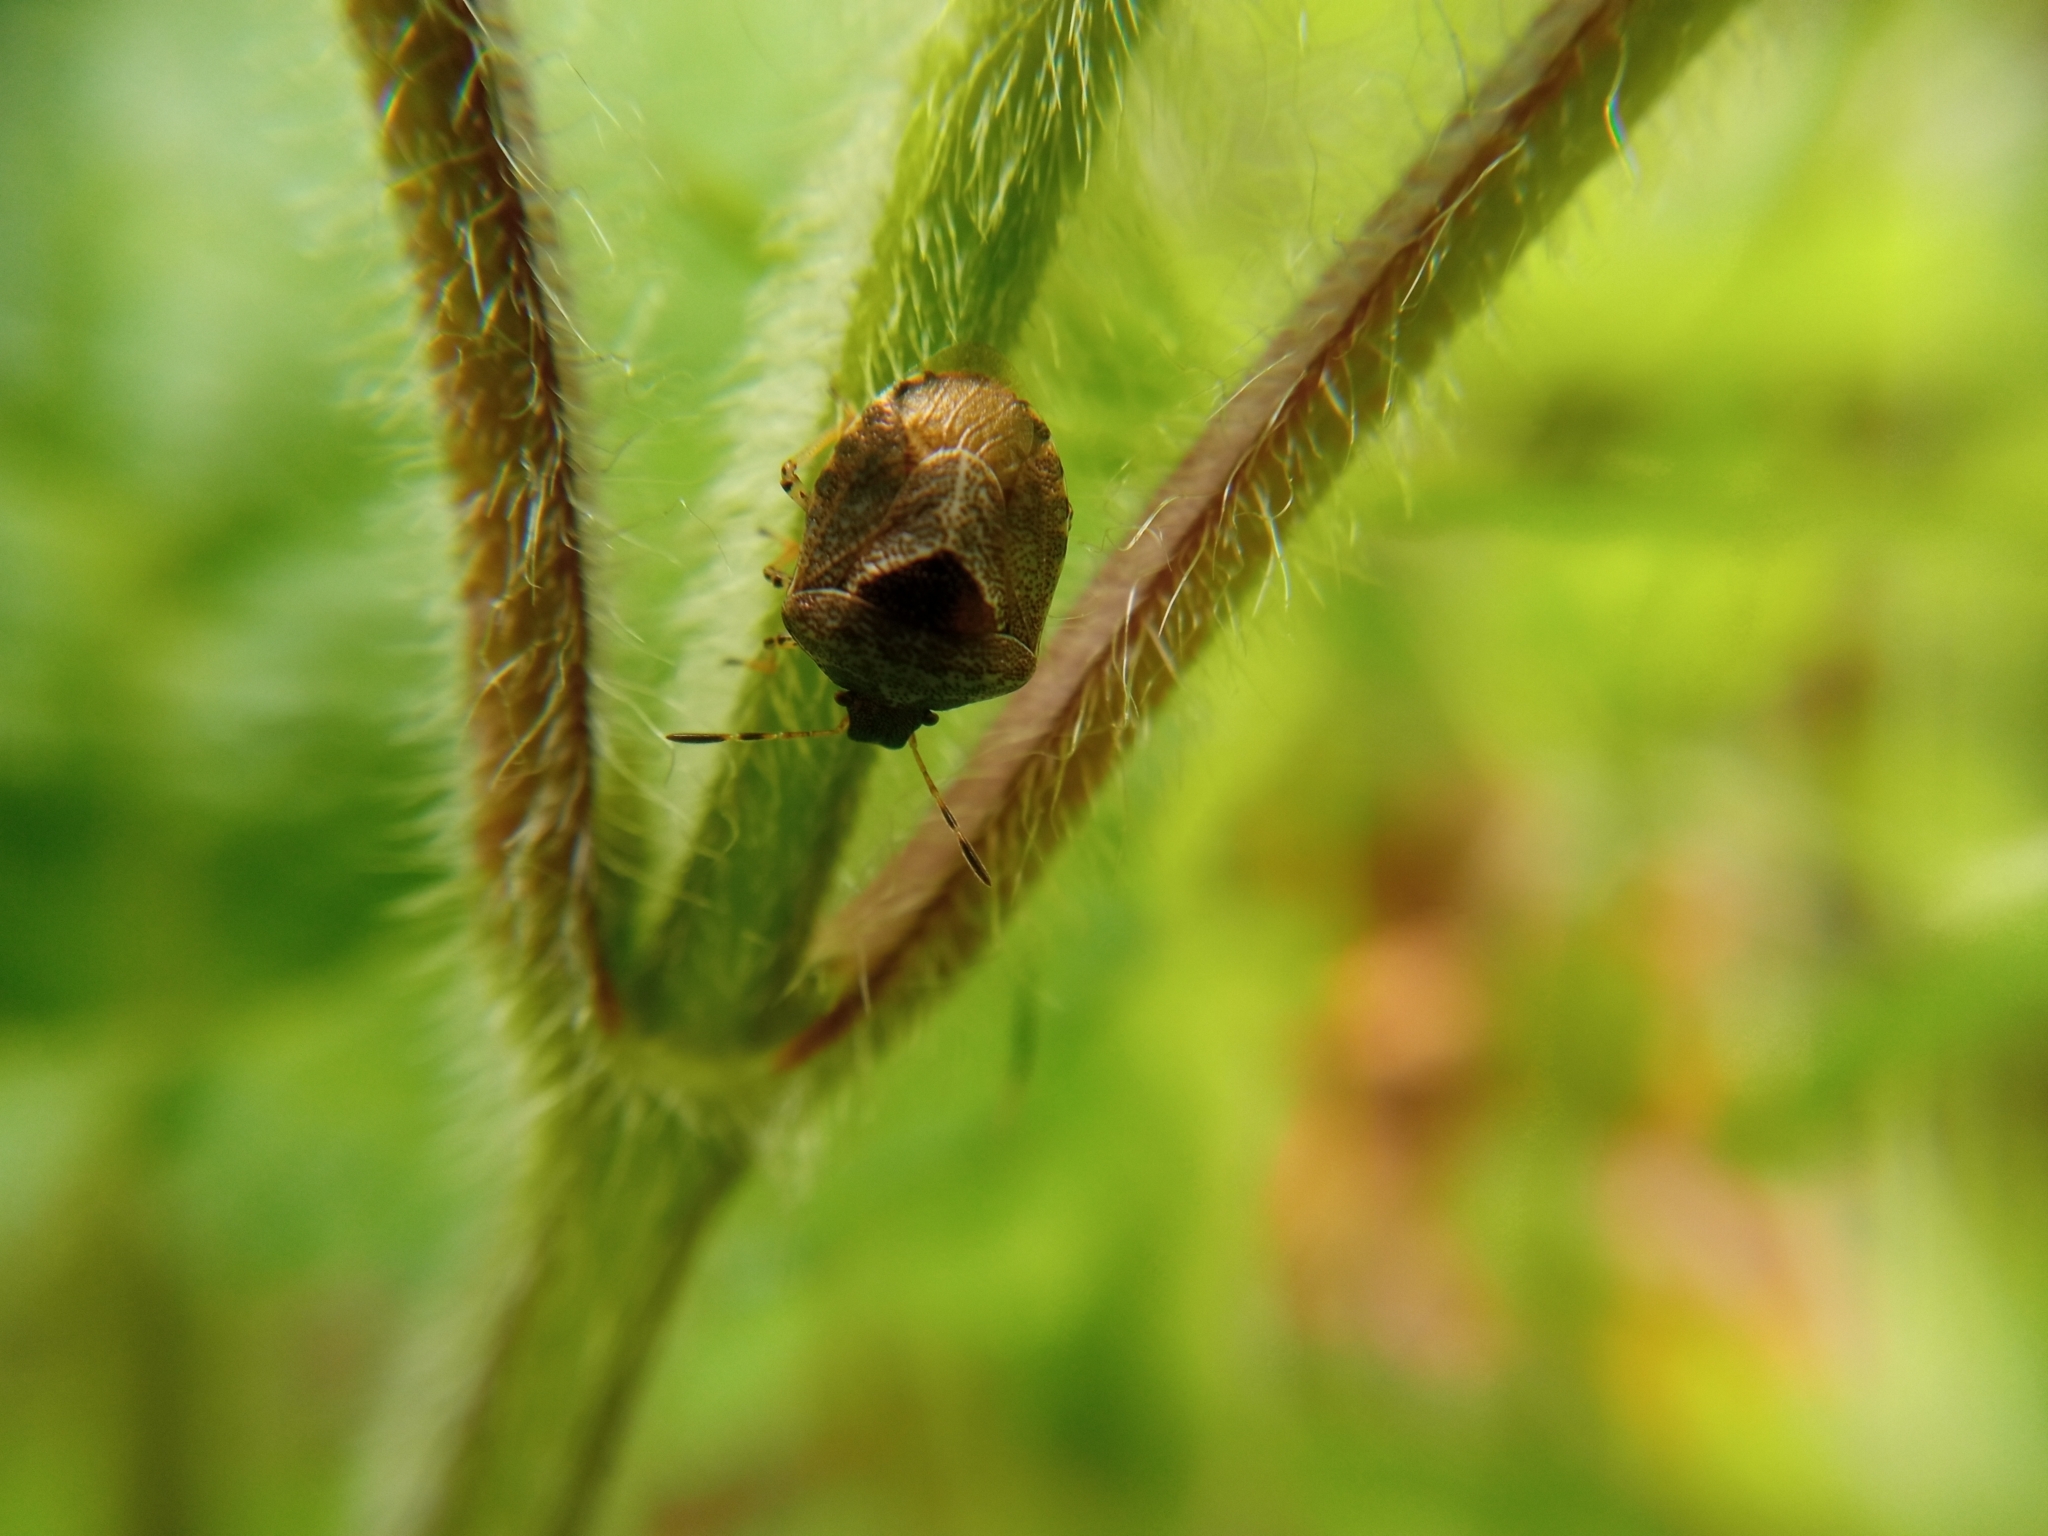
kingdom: Animalia
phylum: Arthropoda
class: Insecta
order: Hemiptera
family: Pentatomidae
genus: Eysarcoris
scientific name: Eysarcoris venustissimus
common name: Woundwort shieldbug
